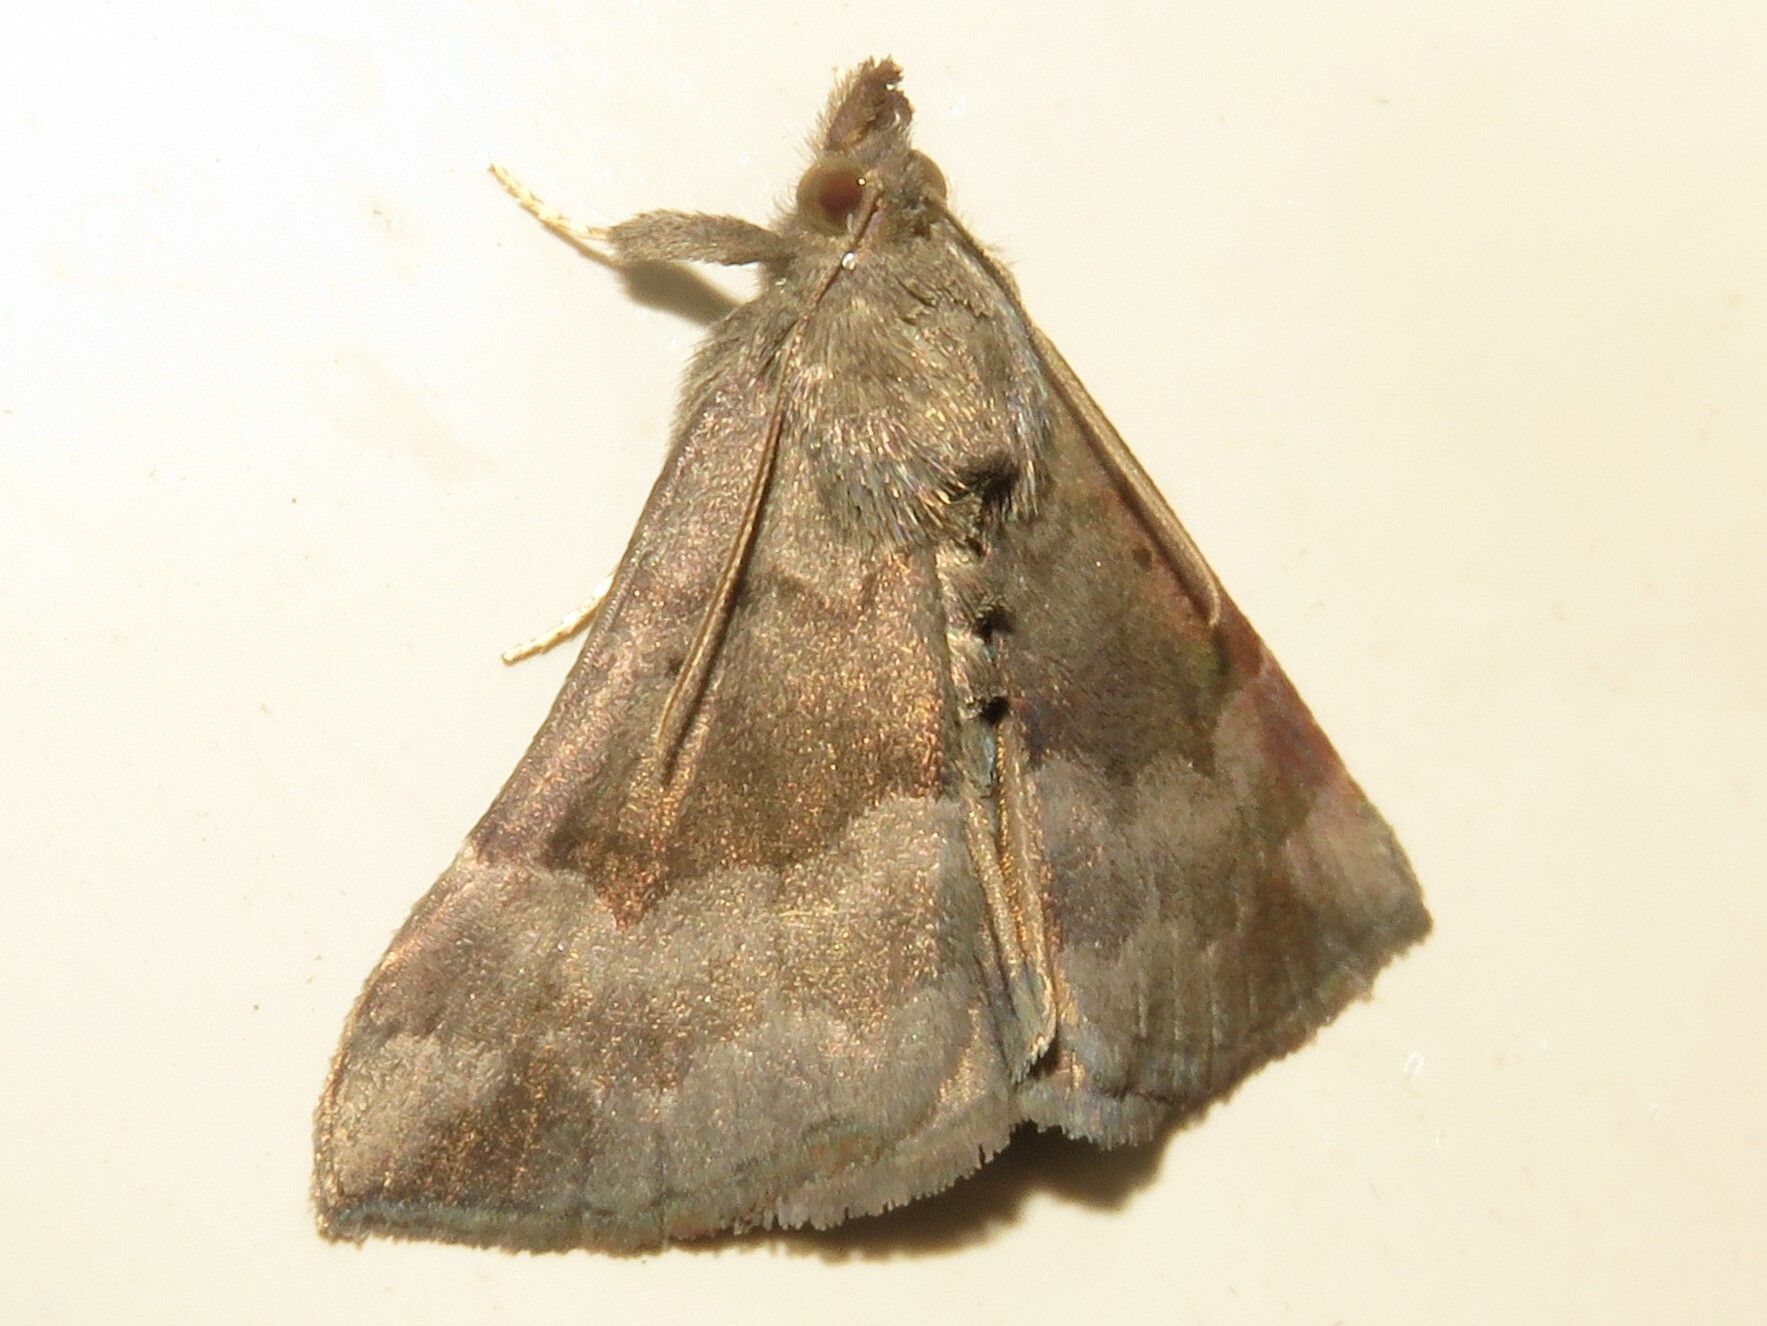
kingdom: Animalia
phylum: Arthropoda
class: Insecta
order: Lepidoptera
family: Erebidae
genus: Hypena
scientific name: Hypena madefactalis
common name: Gray-edged snout
